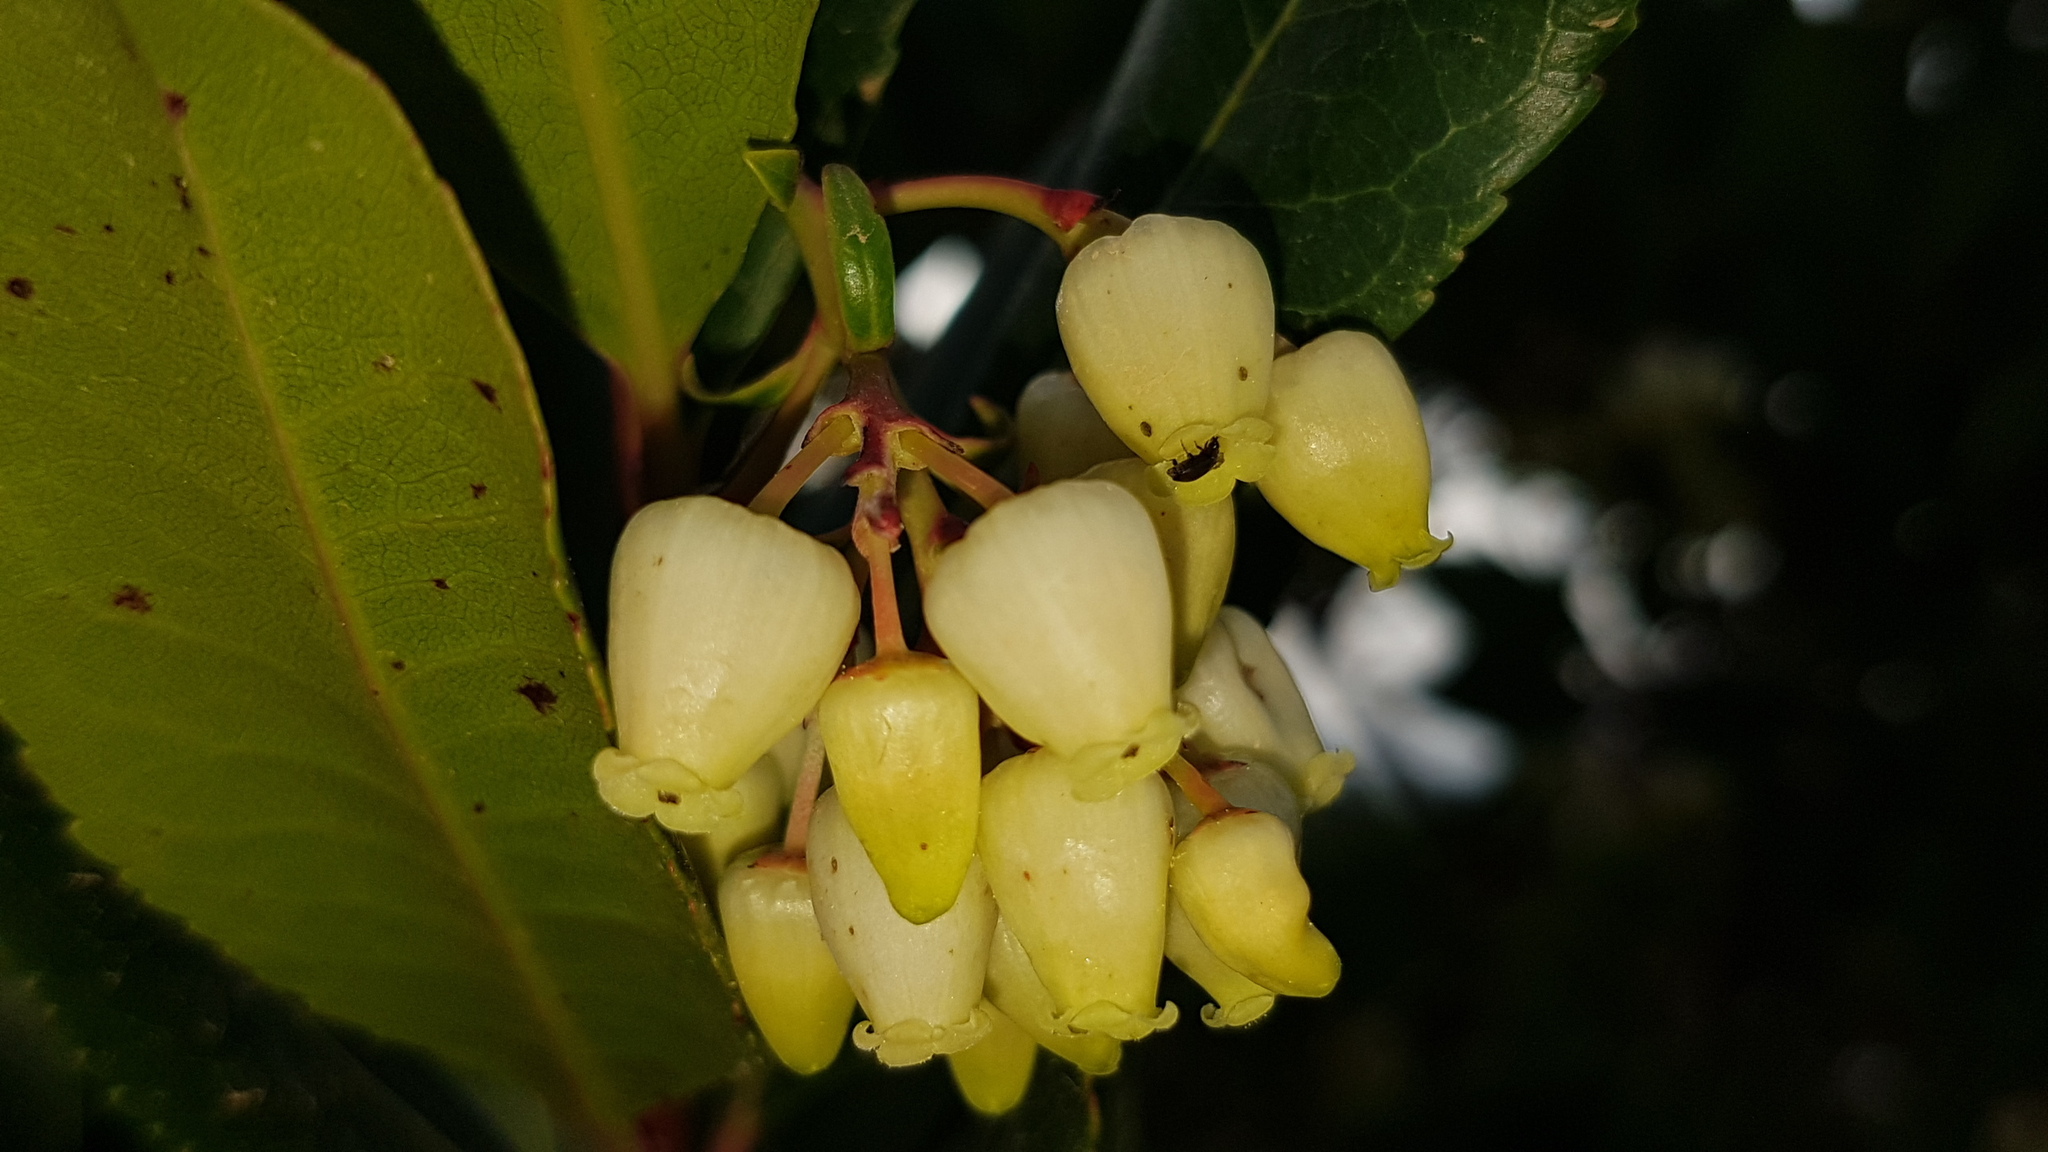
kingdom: Plantae
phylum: Tracheophyta
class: Magnoliopsida
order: Ericales
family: Ericaceae
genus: Arbutus
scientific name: Arbutus unedo
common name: Strawberry-tree
